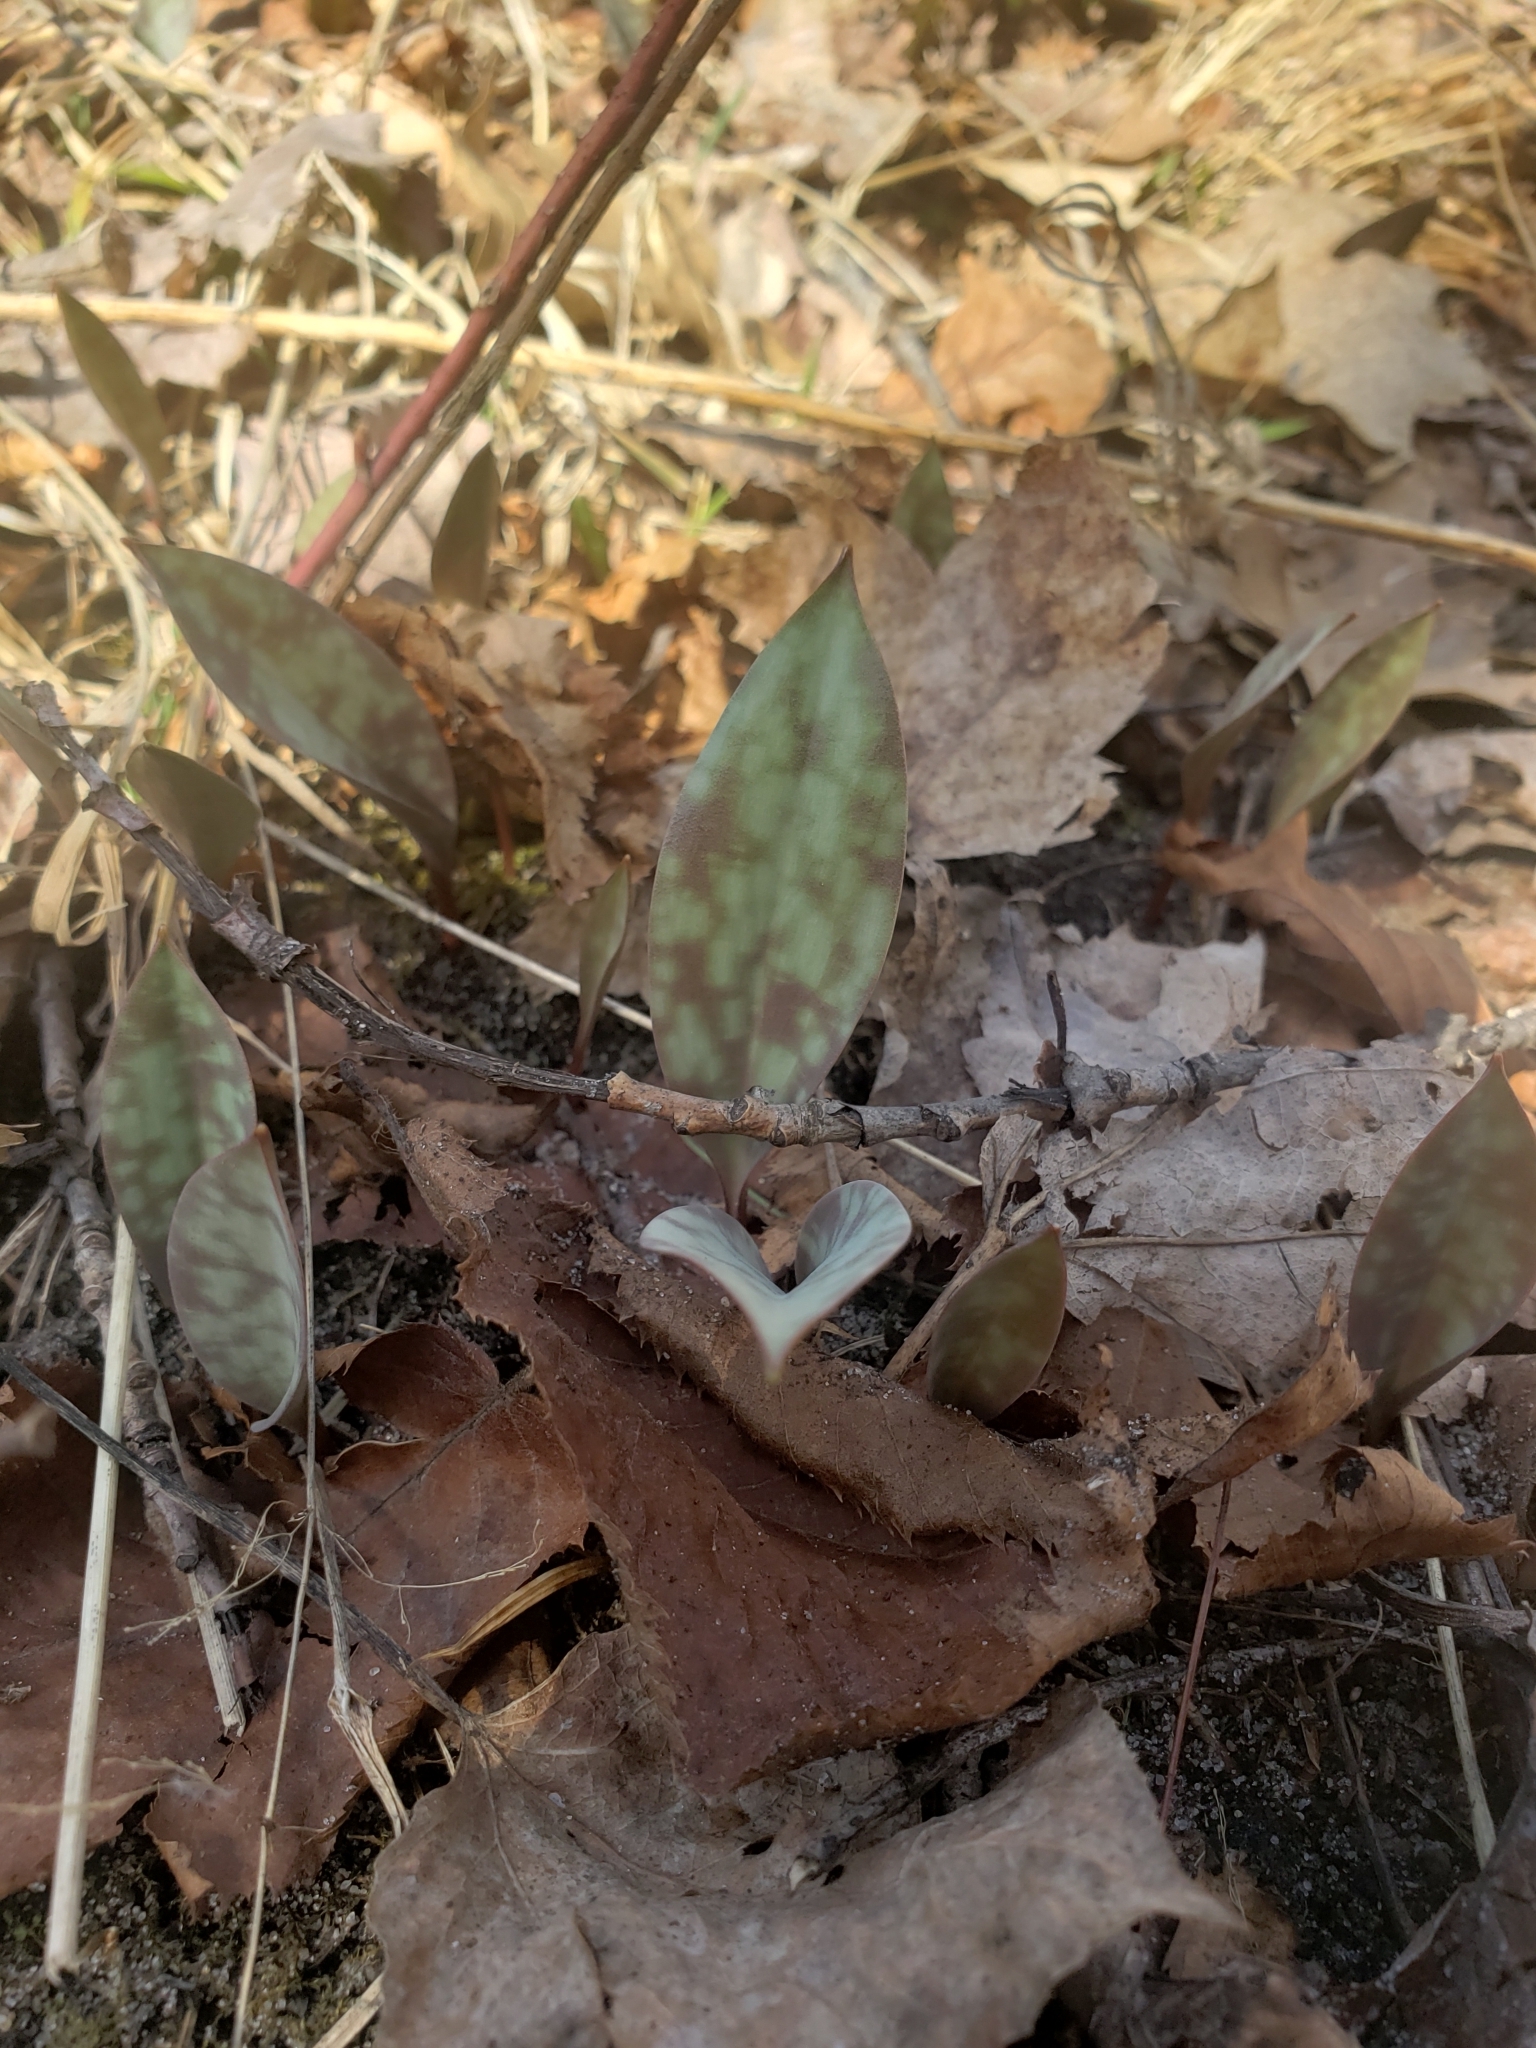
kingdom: Plantae
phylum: Tracheophyta
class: Liliopsida
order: Liliales
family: Liliaceae
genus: Erythronium
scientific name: Erythronium americanum
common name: Yellow adder's-tongue
